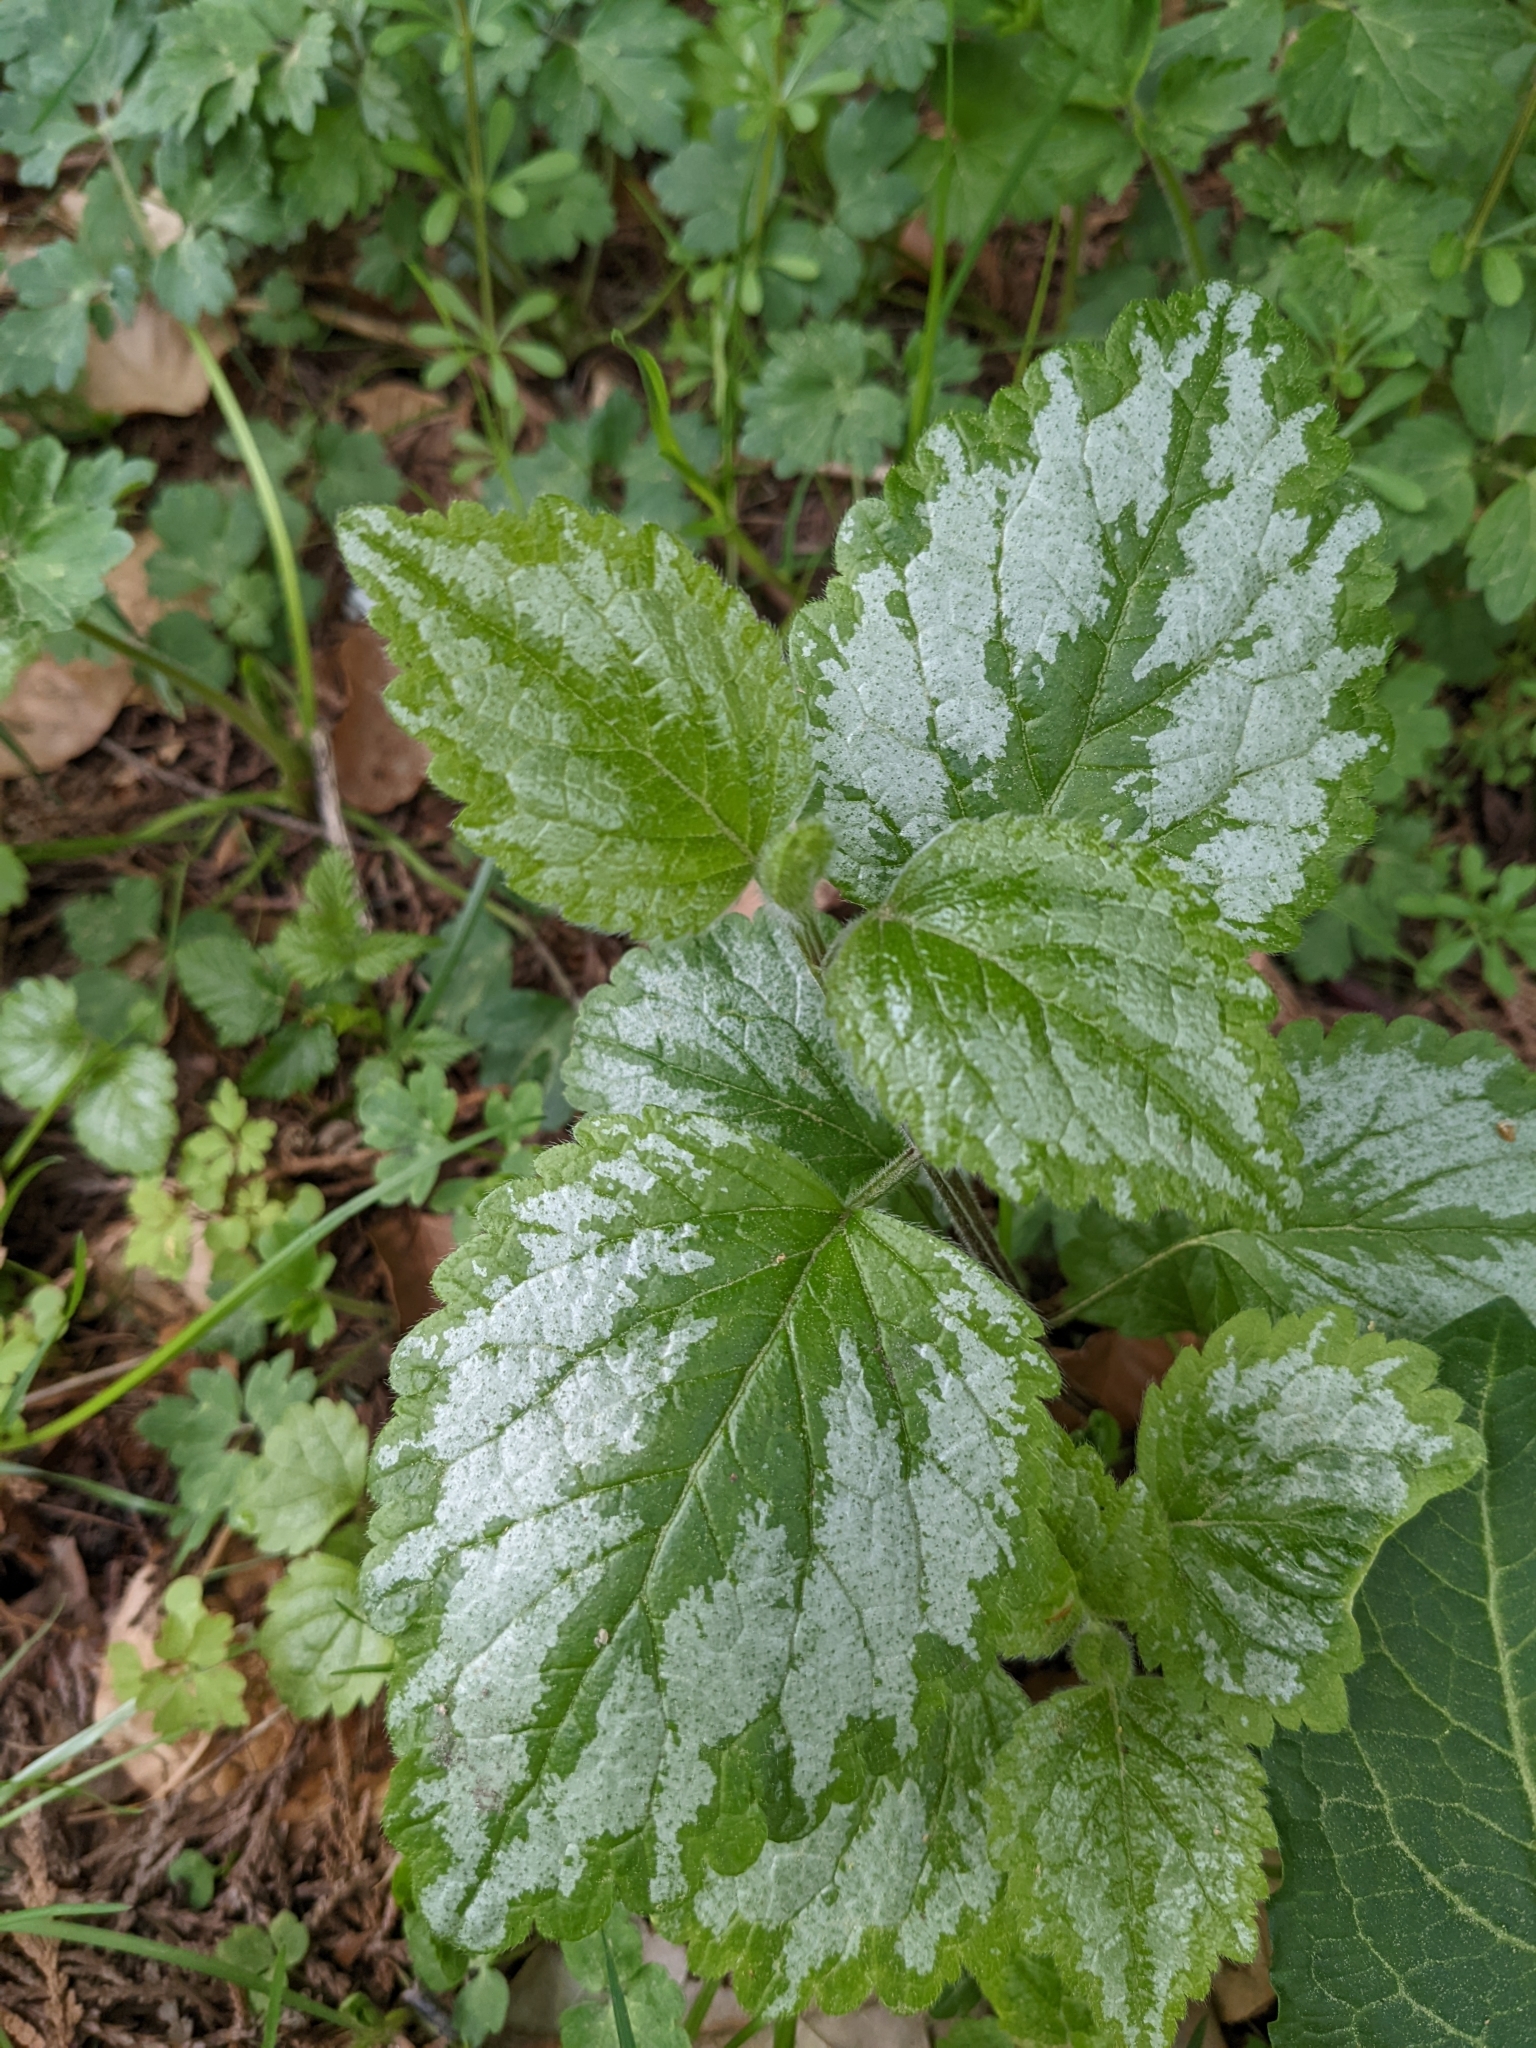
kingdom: Plantae
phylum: Tracheophyta
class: Magnoliopsida
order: Lamiales
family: Lamiaceae
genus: Lamium
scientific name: Lamium galeobdolon
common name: Yellow archangel
